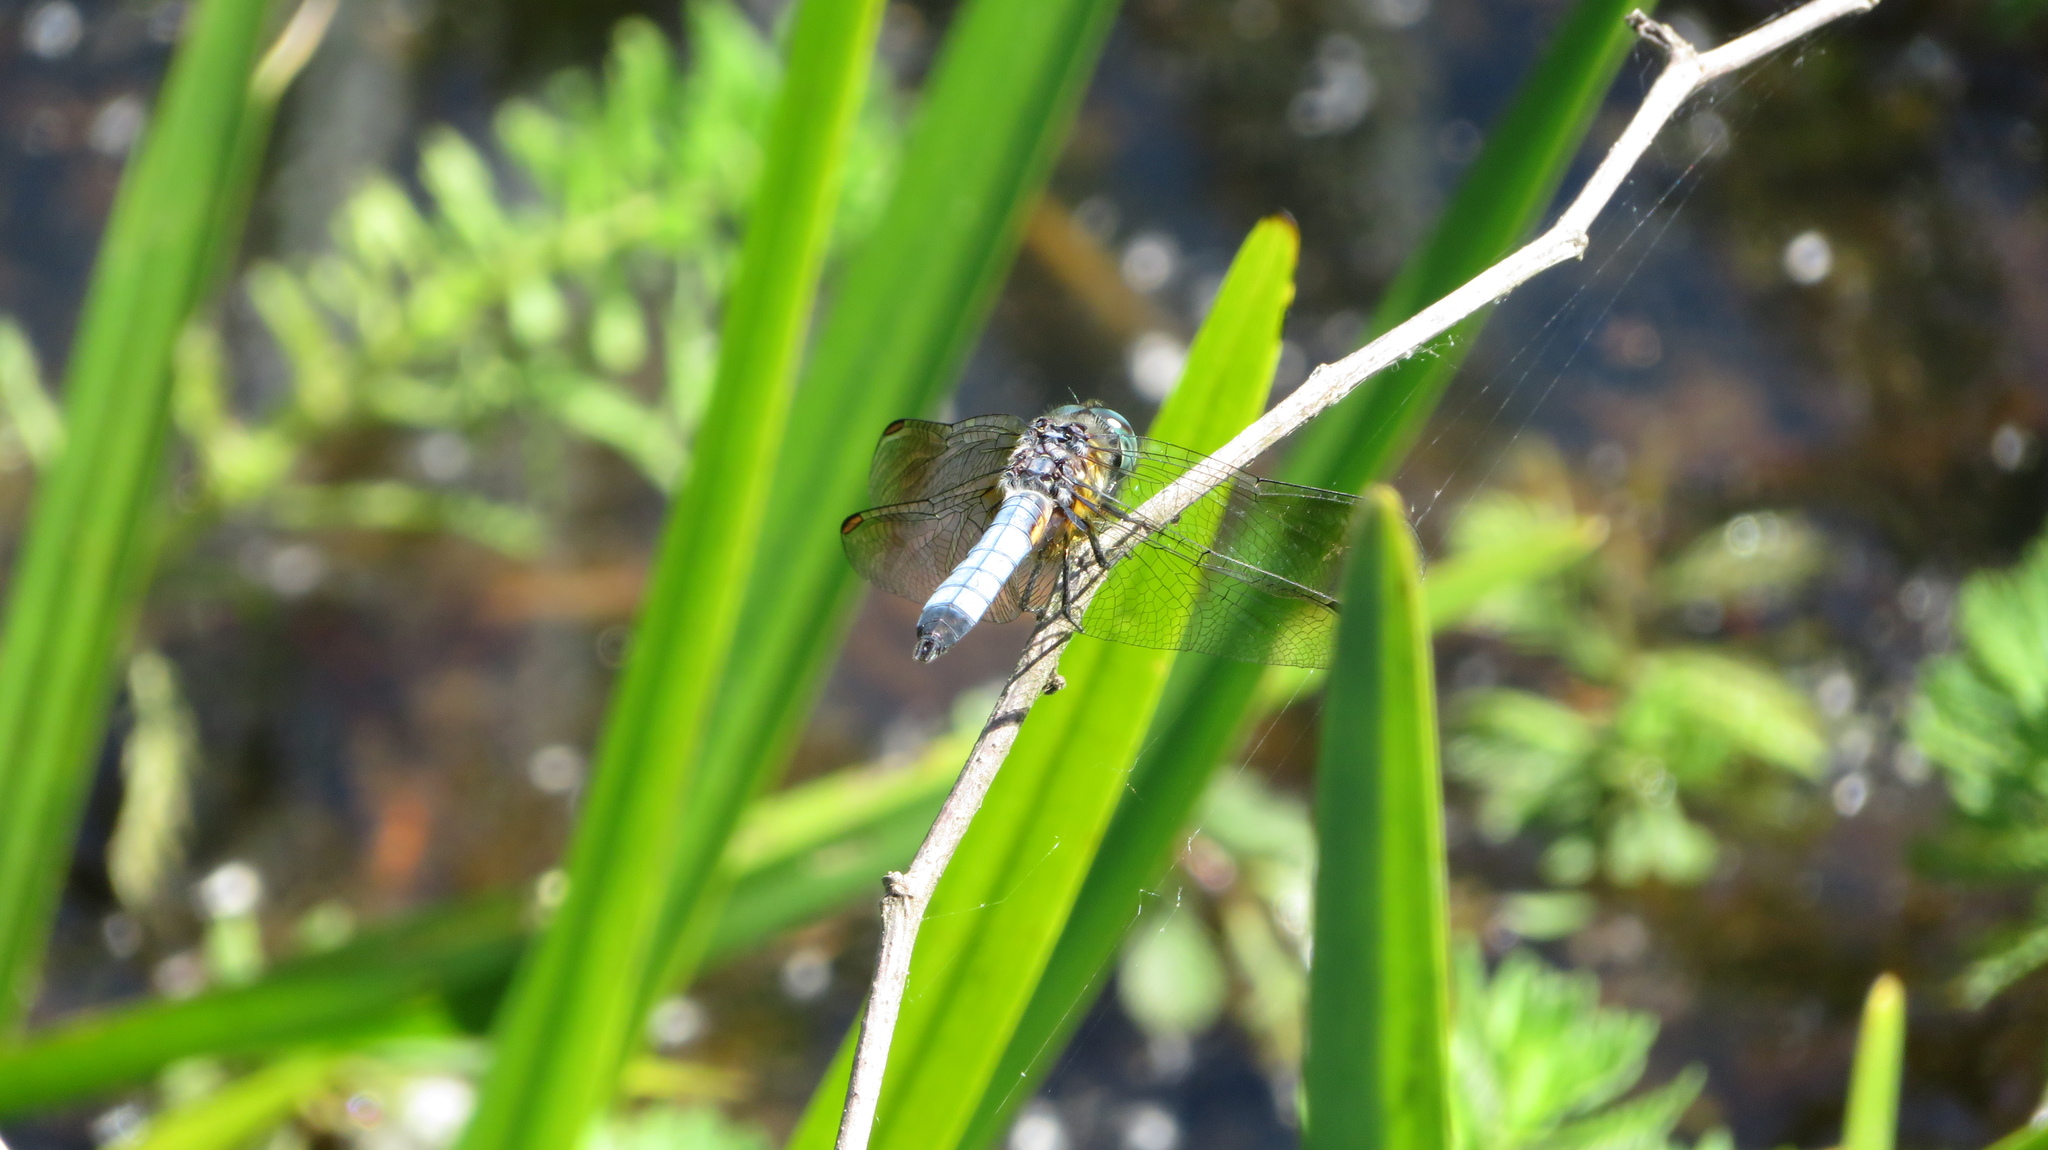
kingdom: Animalia
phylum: Arthropoda
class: Insecta
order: Odonata
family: Libellulidae
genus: Pachydiplax
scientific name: Pachydiplax longipennis
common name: Blue dasher
